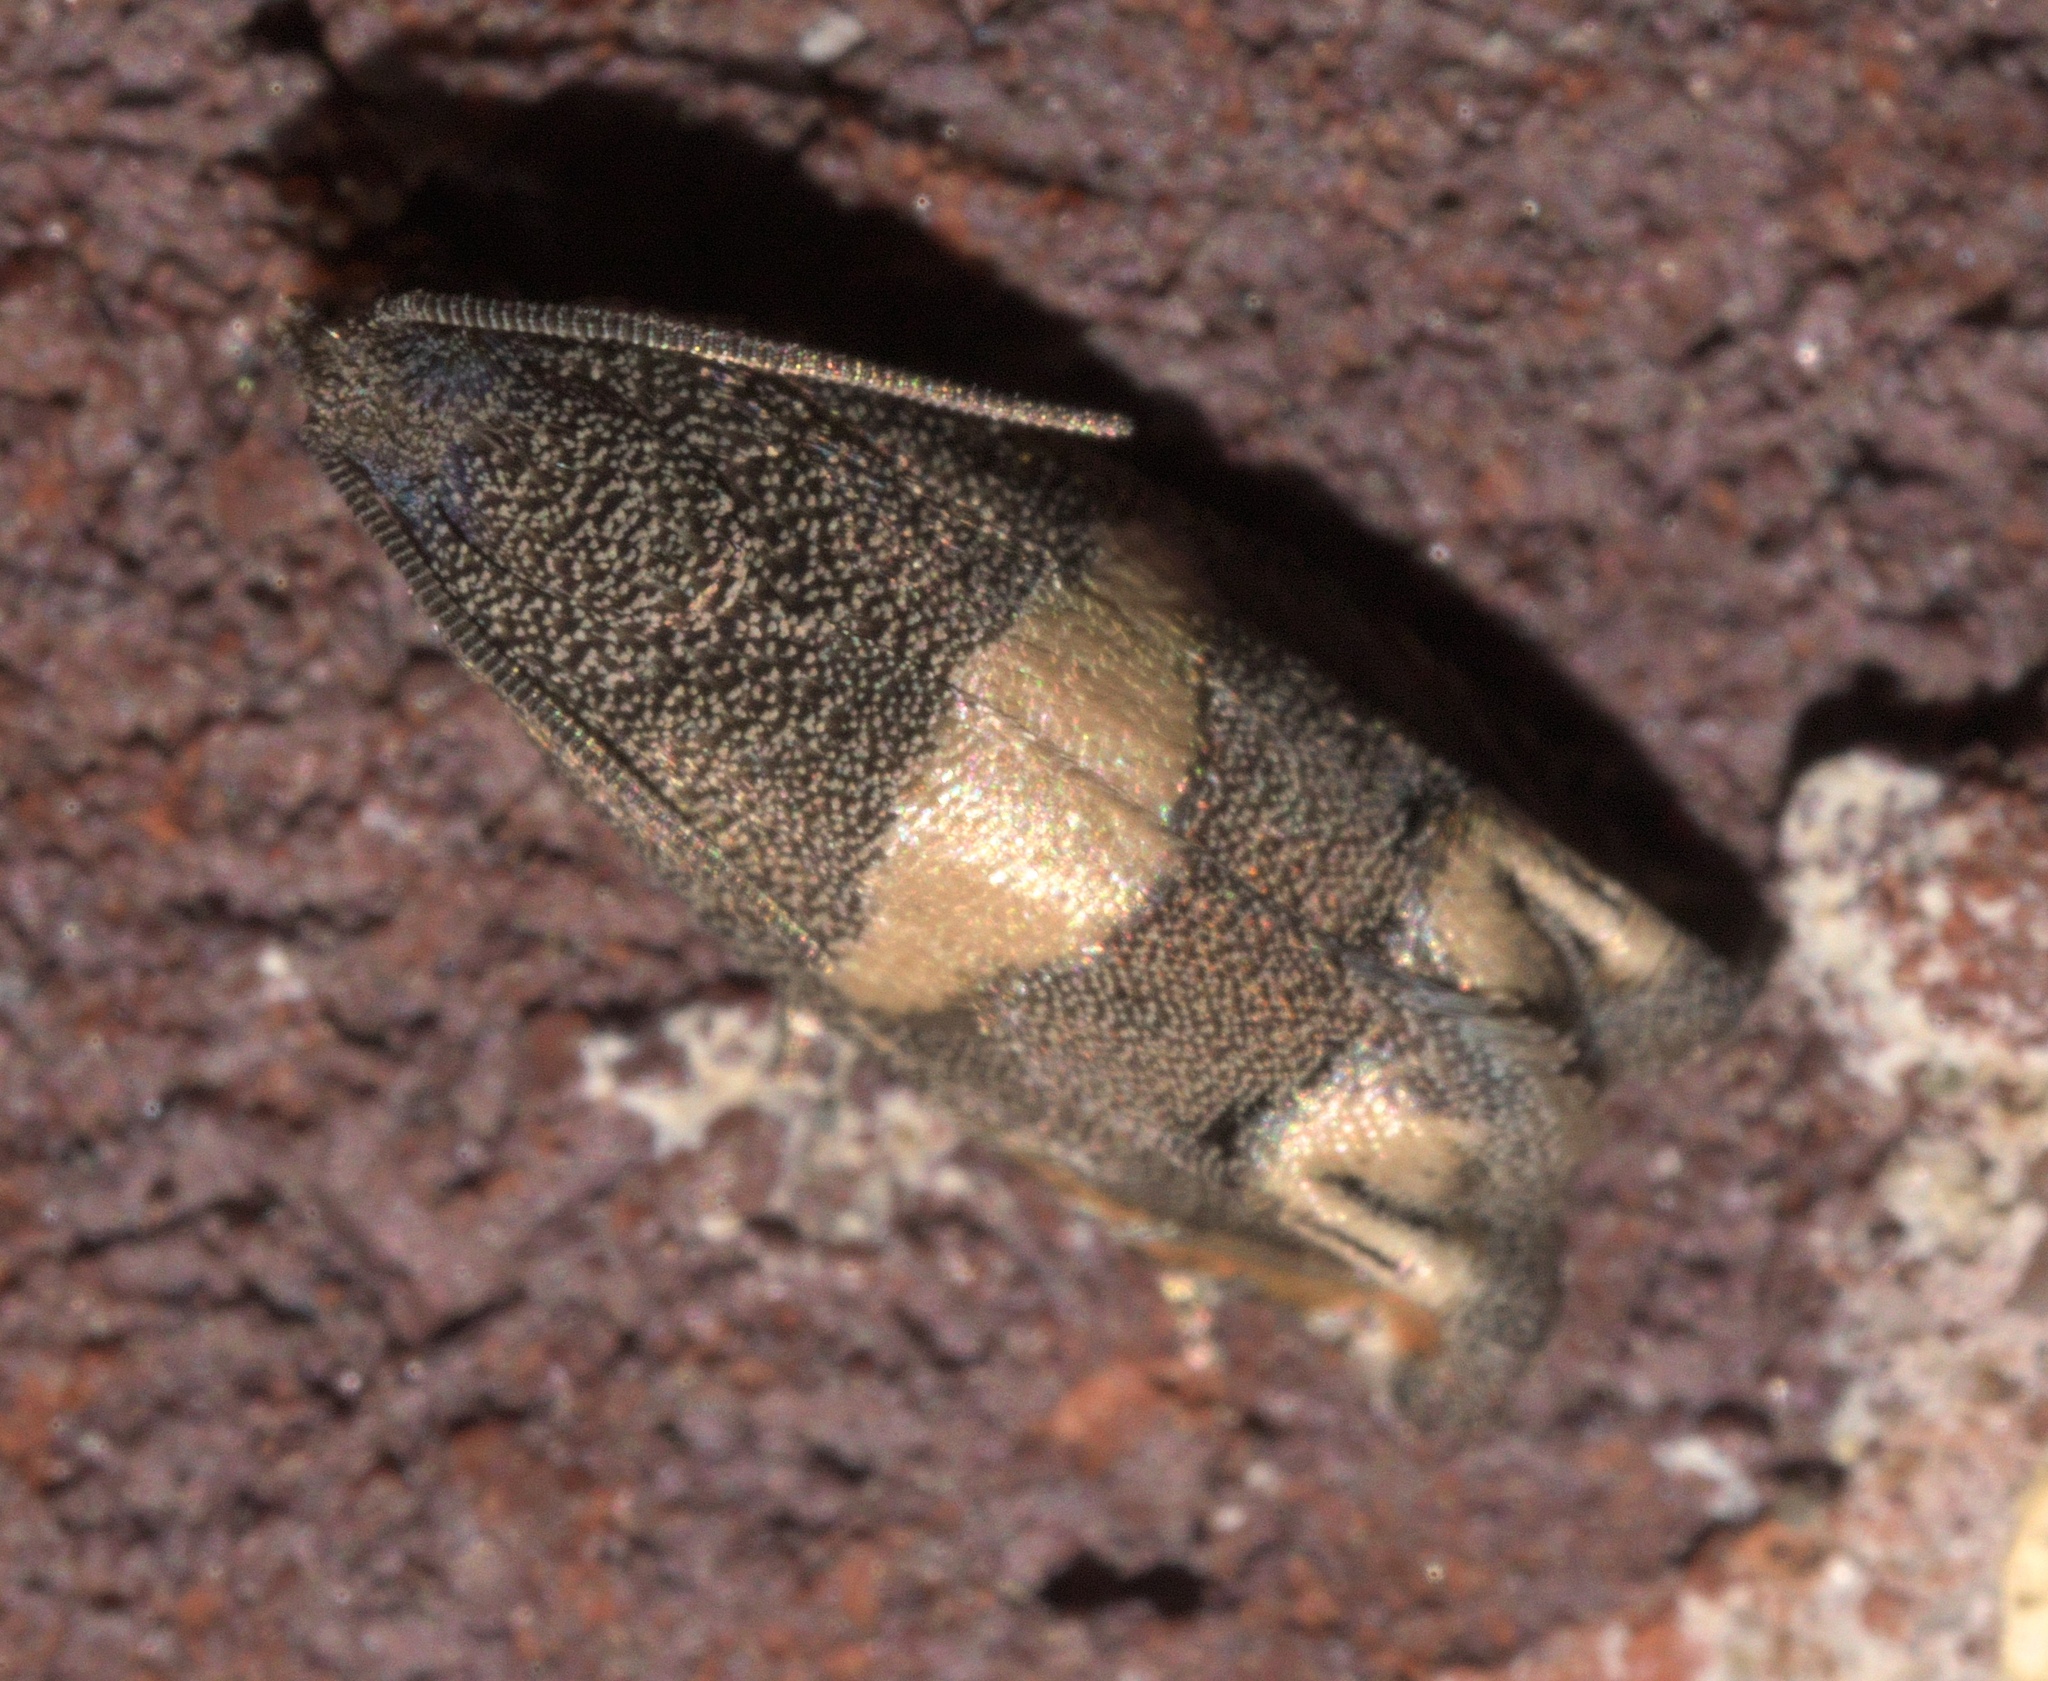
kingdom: Animalia
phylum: Arthropoda
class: Insecta
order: Lepidoptera
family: Tortricidae
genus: Epiblema
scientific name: Epiblema
